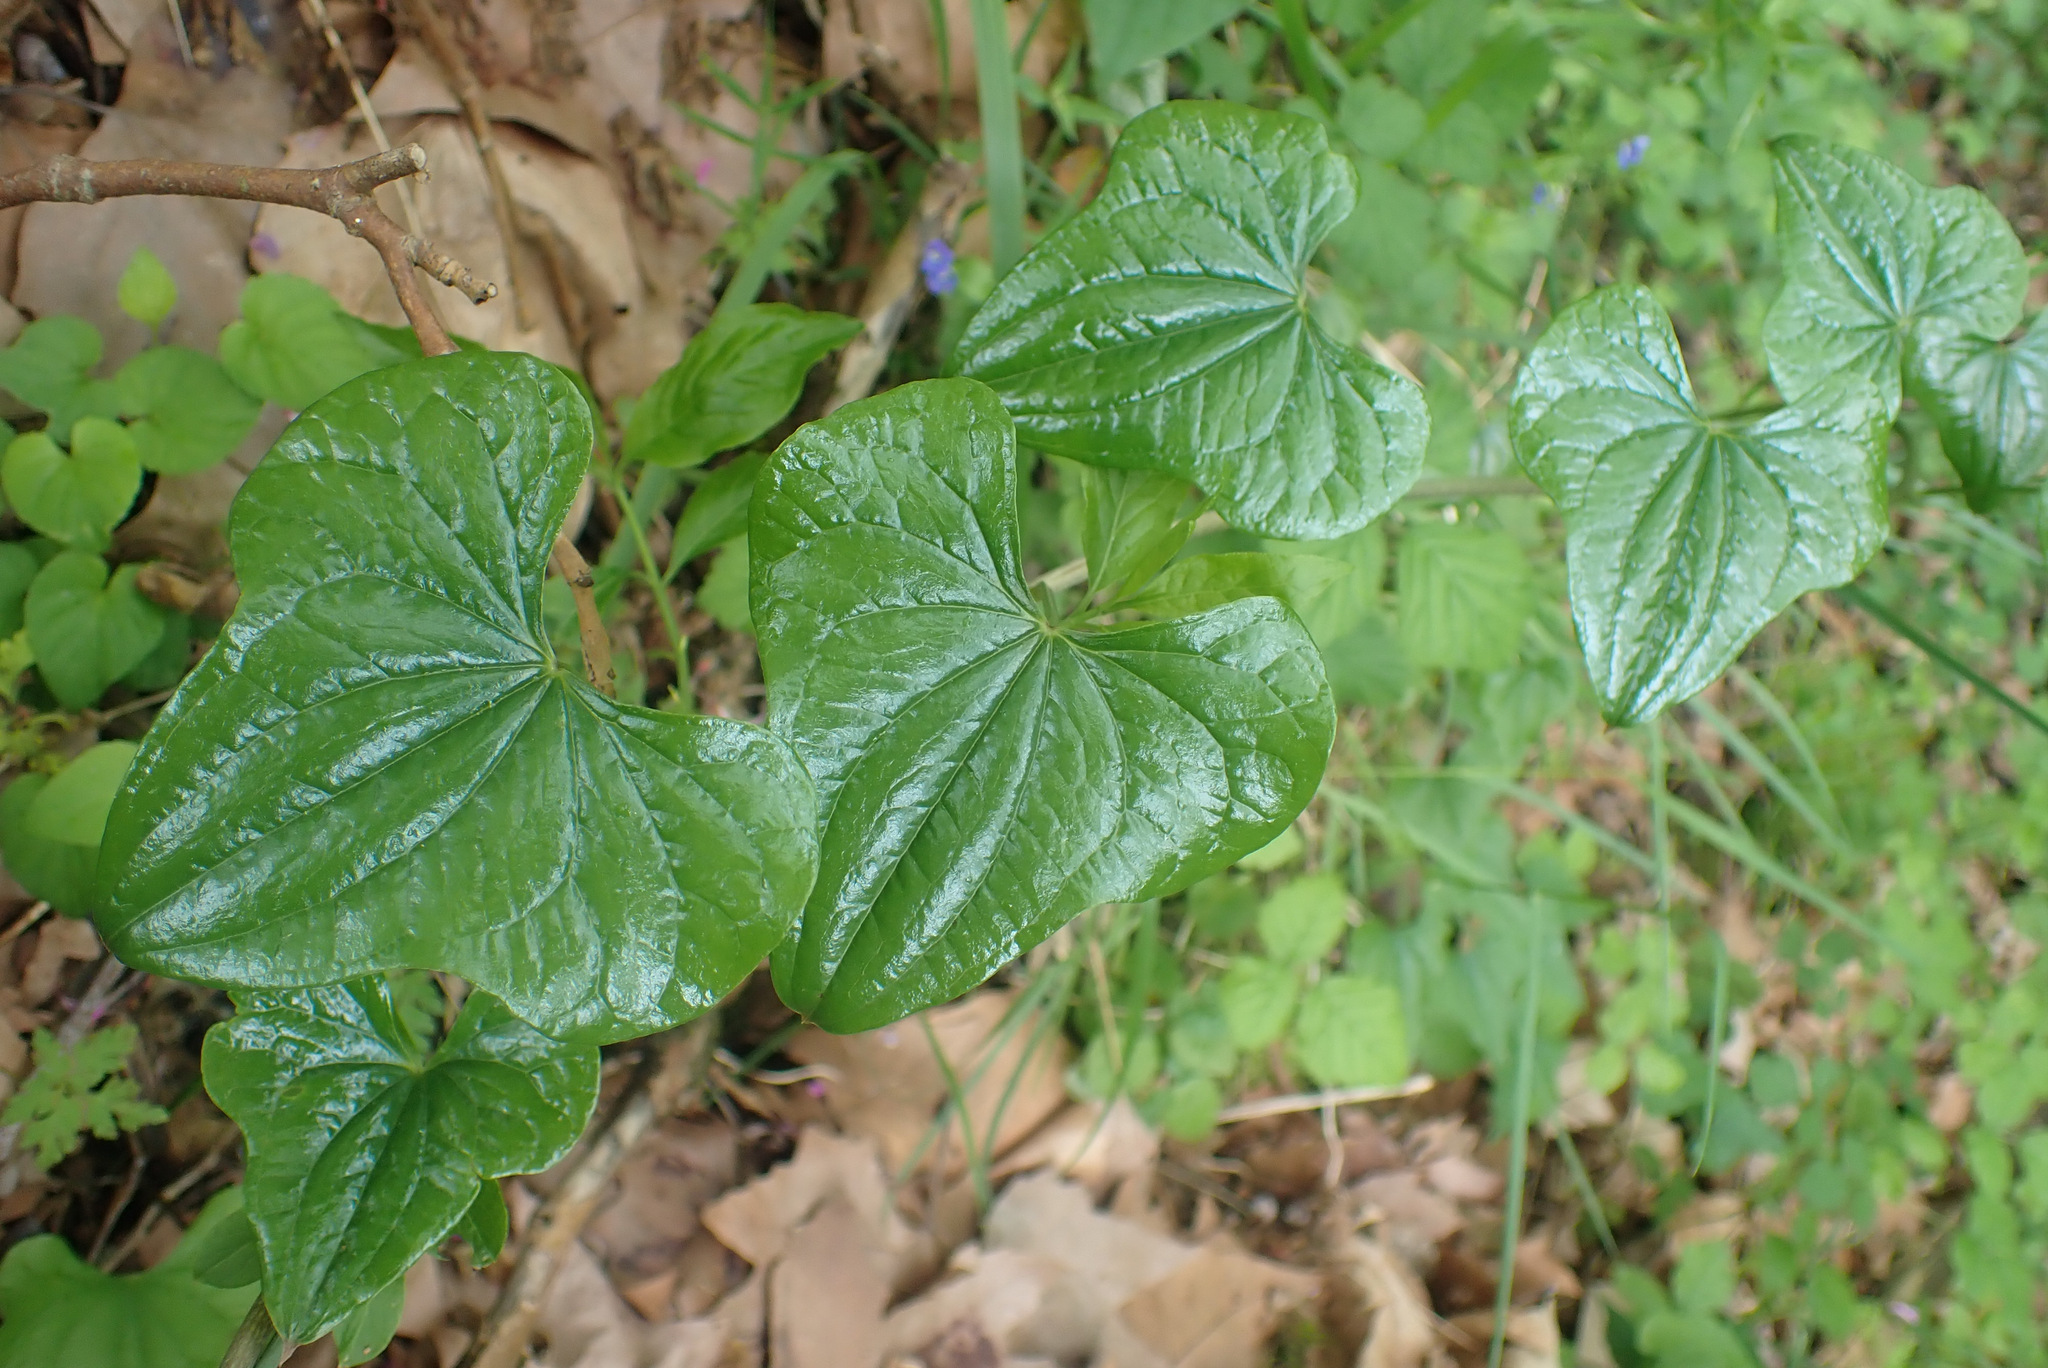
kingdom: Plantae
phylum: Tracheophyta
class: Liliopsida
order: Dioscoreales
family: Dioscoreaceae
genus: Dioscorea
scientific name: Dioscorea communis
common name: Black-bindweed
